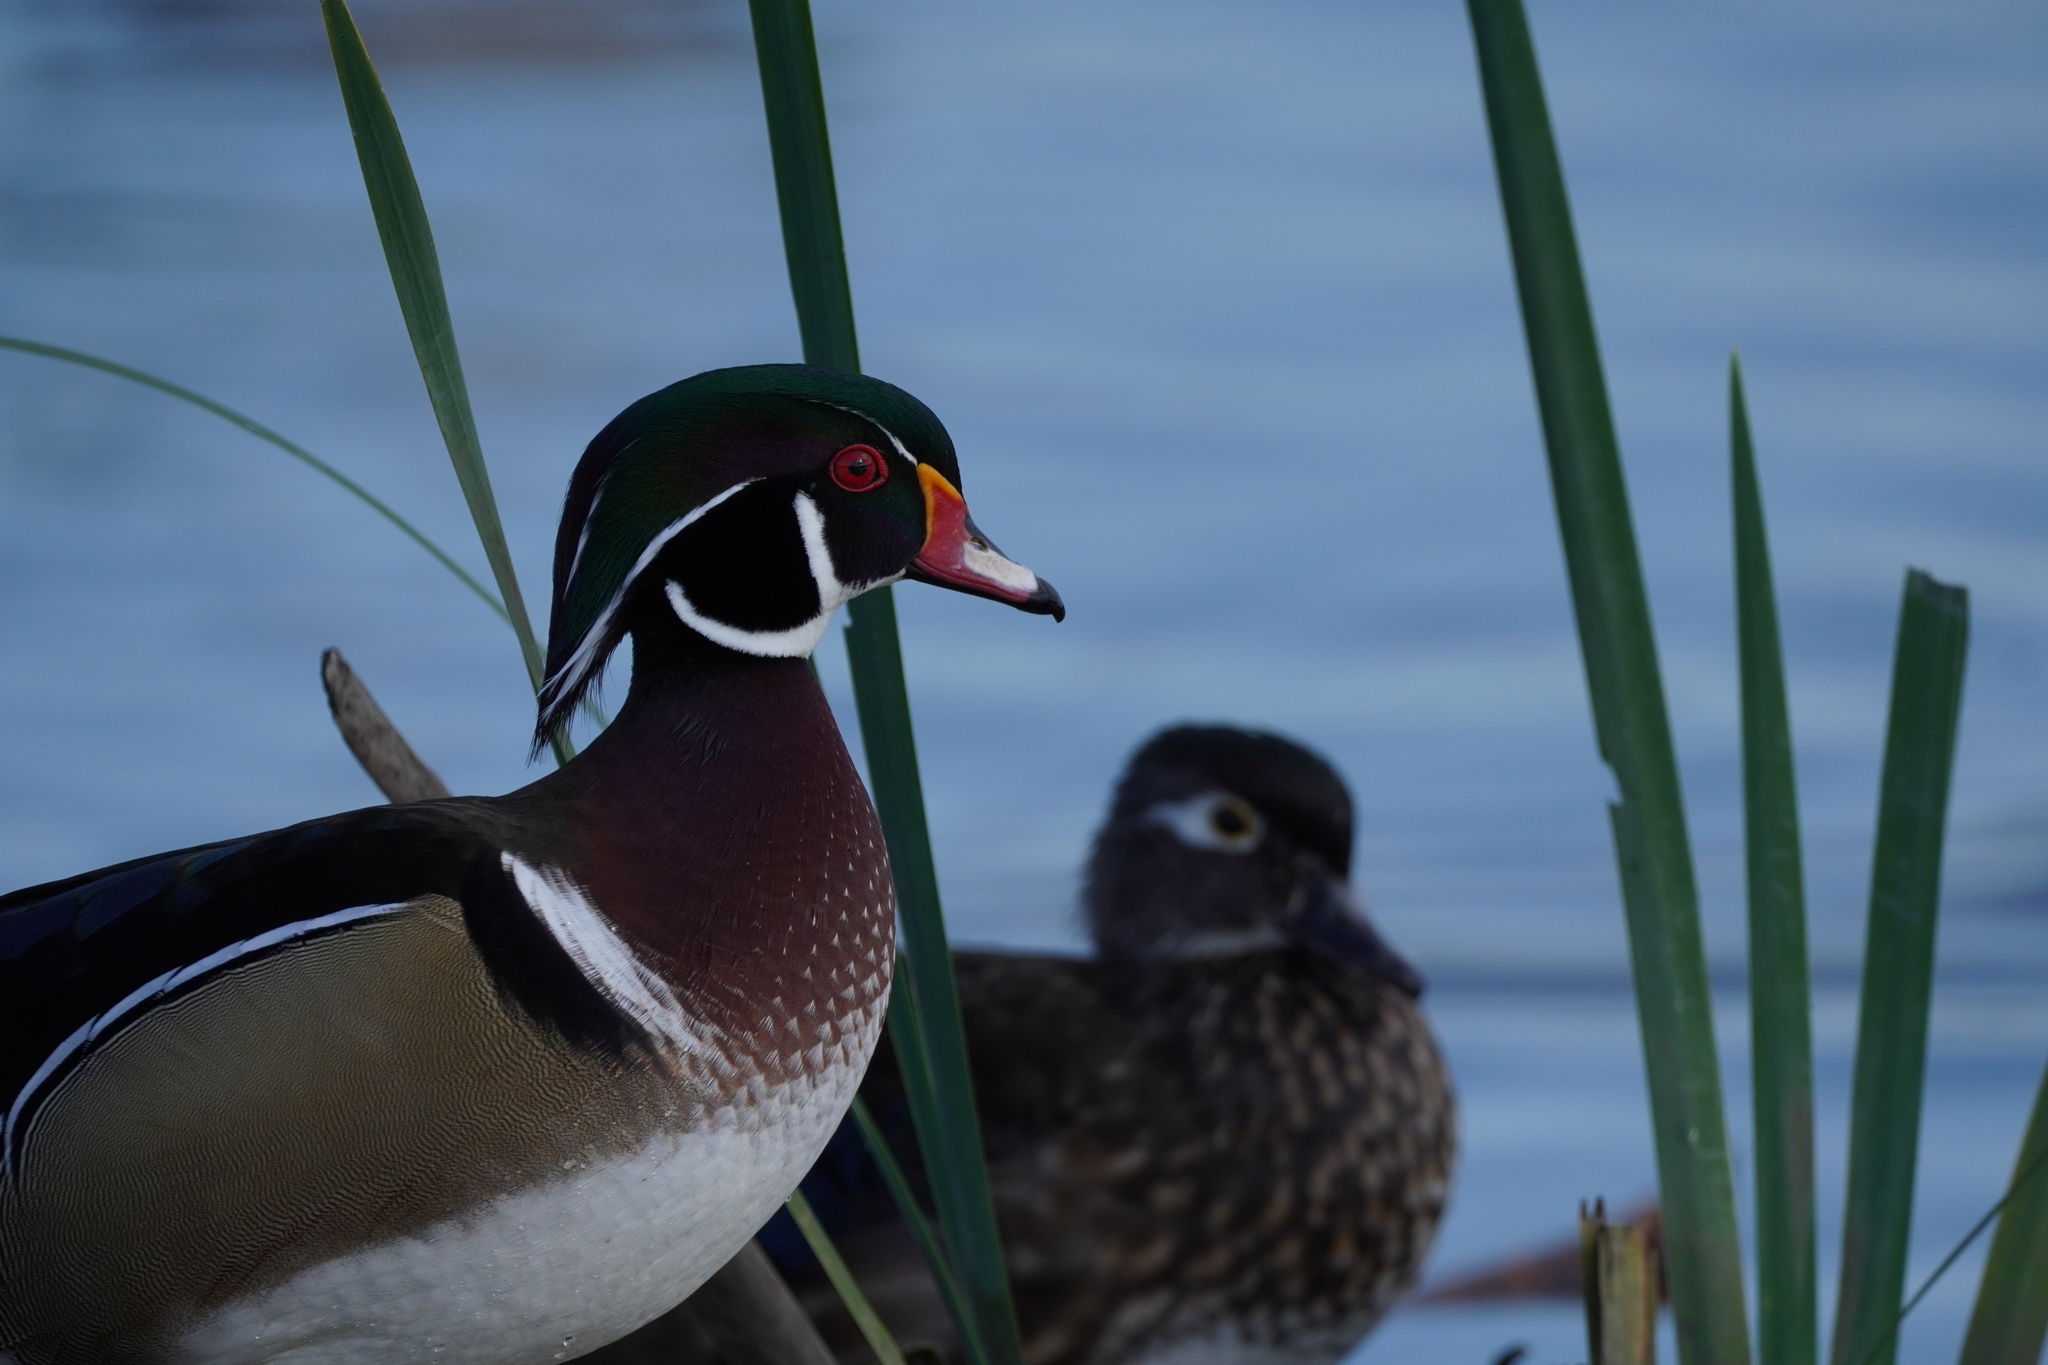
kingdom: Animalia
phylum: Chordata
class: Aves
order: Anseriformes
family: Anatidae
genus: Aix
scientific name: Aix sponsa
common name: Wood duck
